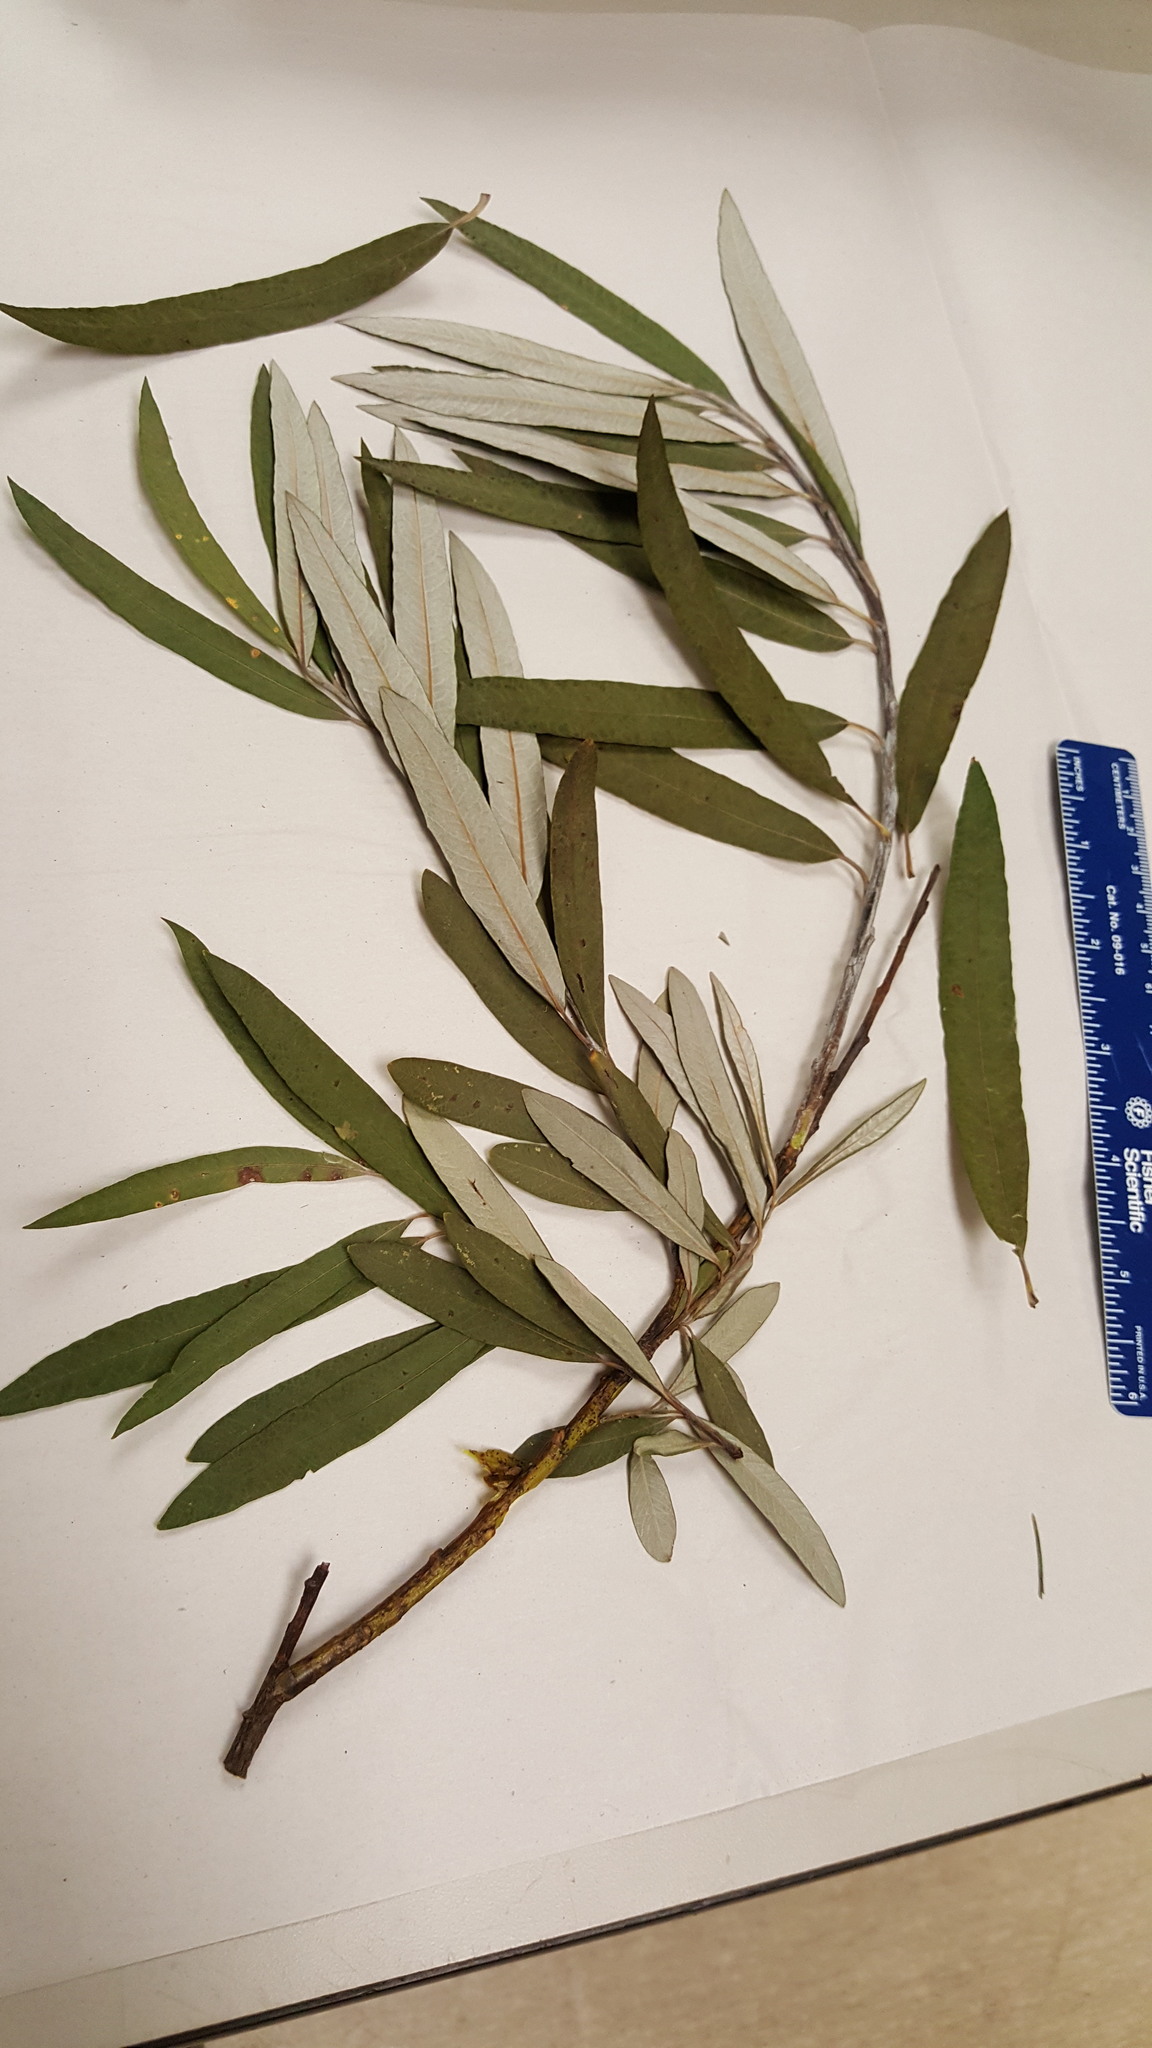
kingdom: Plantae
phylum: Tracheophyta
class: Magnoliopsida
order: Malpighiales
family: Salicaceae
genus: Salix
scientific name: Salix pellita
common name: Satiny willow
